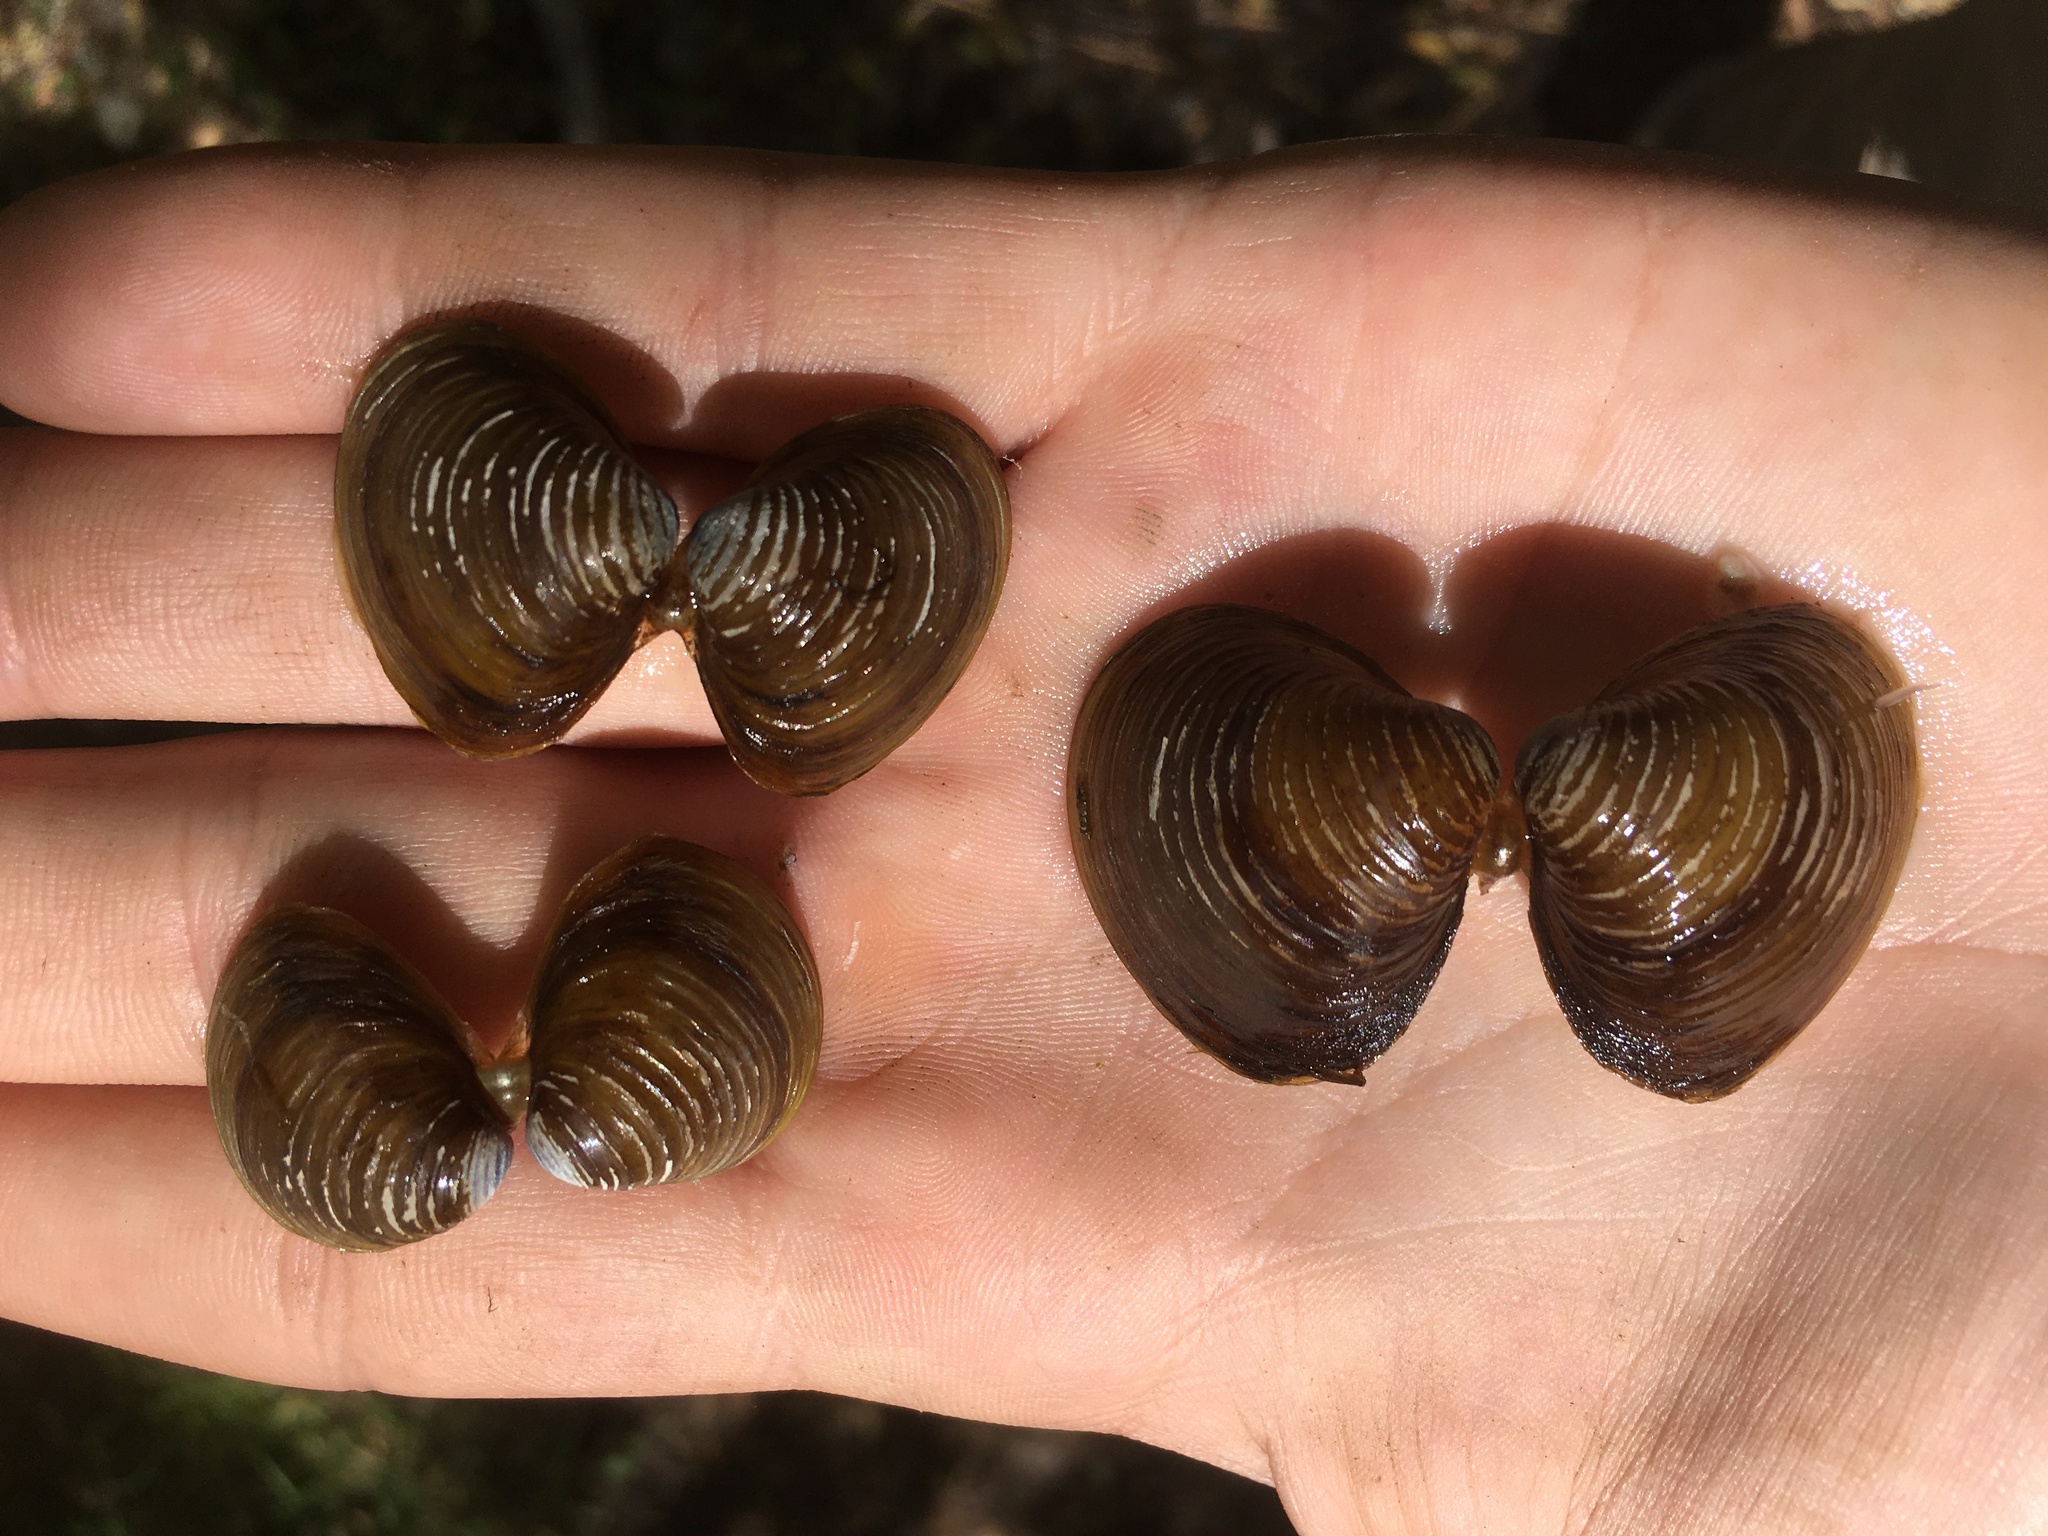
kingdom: Animalia
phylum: Mollusca
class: Bivalvia
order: Venerida
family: Cyrenidae
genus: Corbicula
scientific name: Corbicula fluminea
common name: Asian clam
